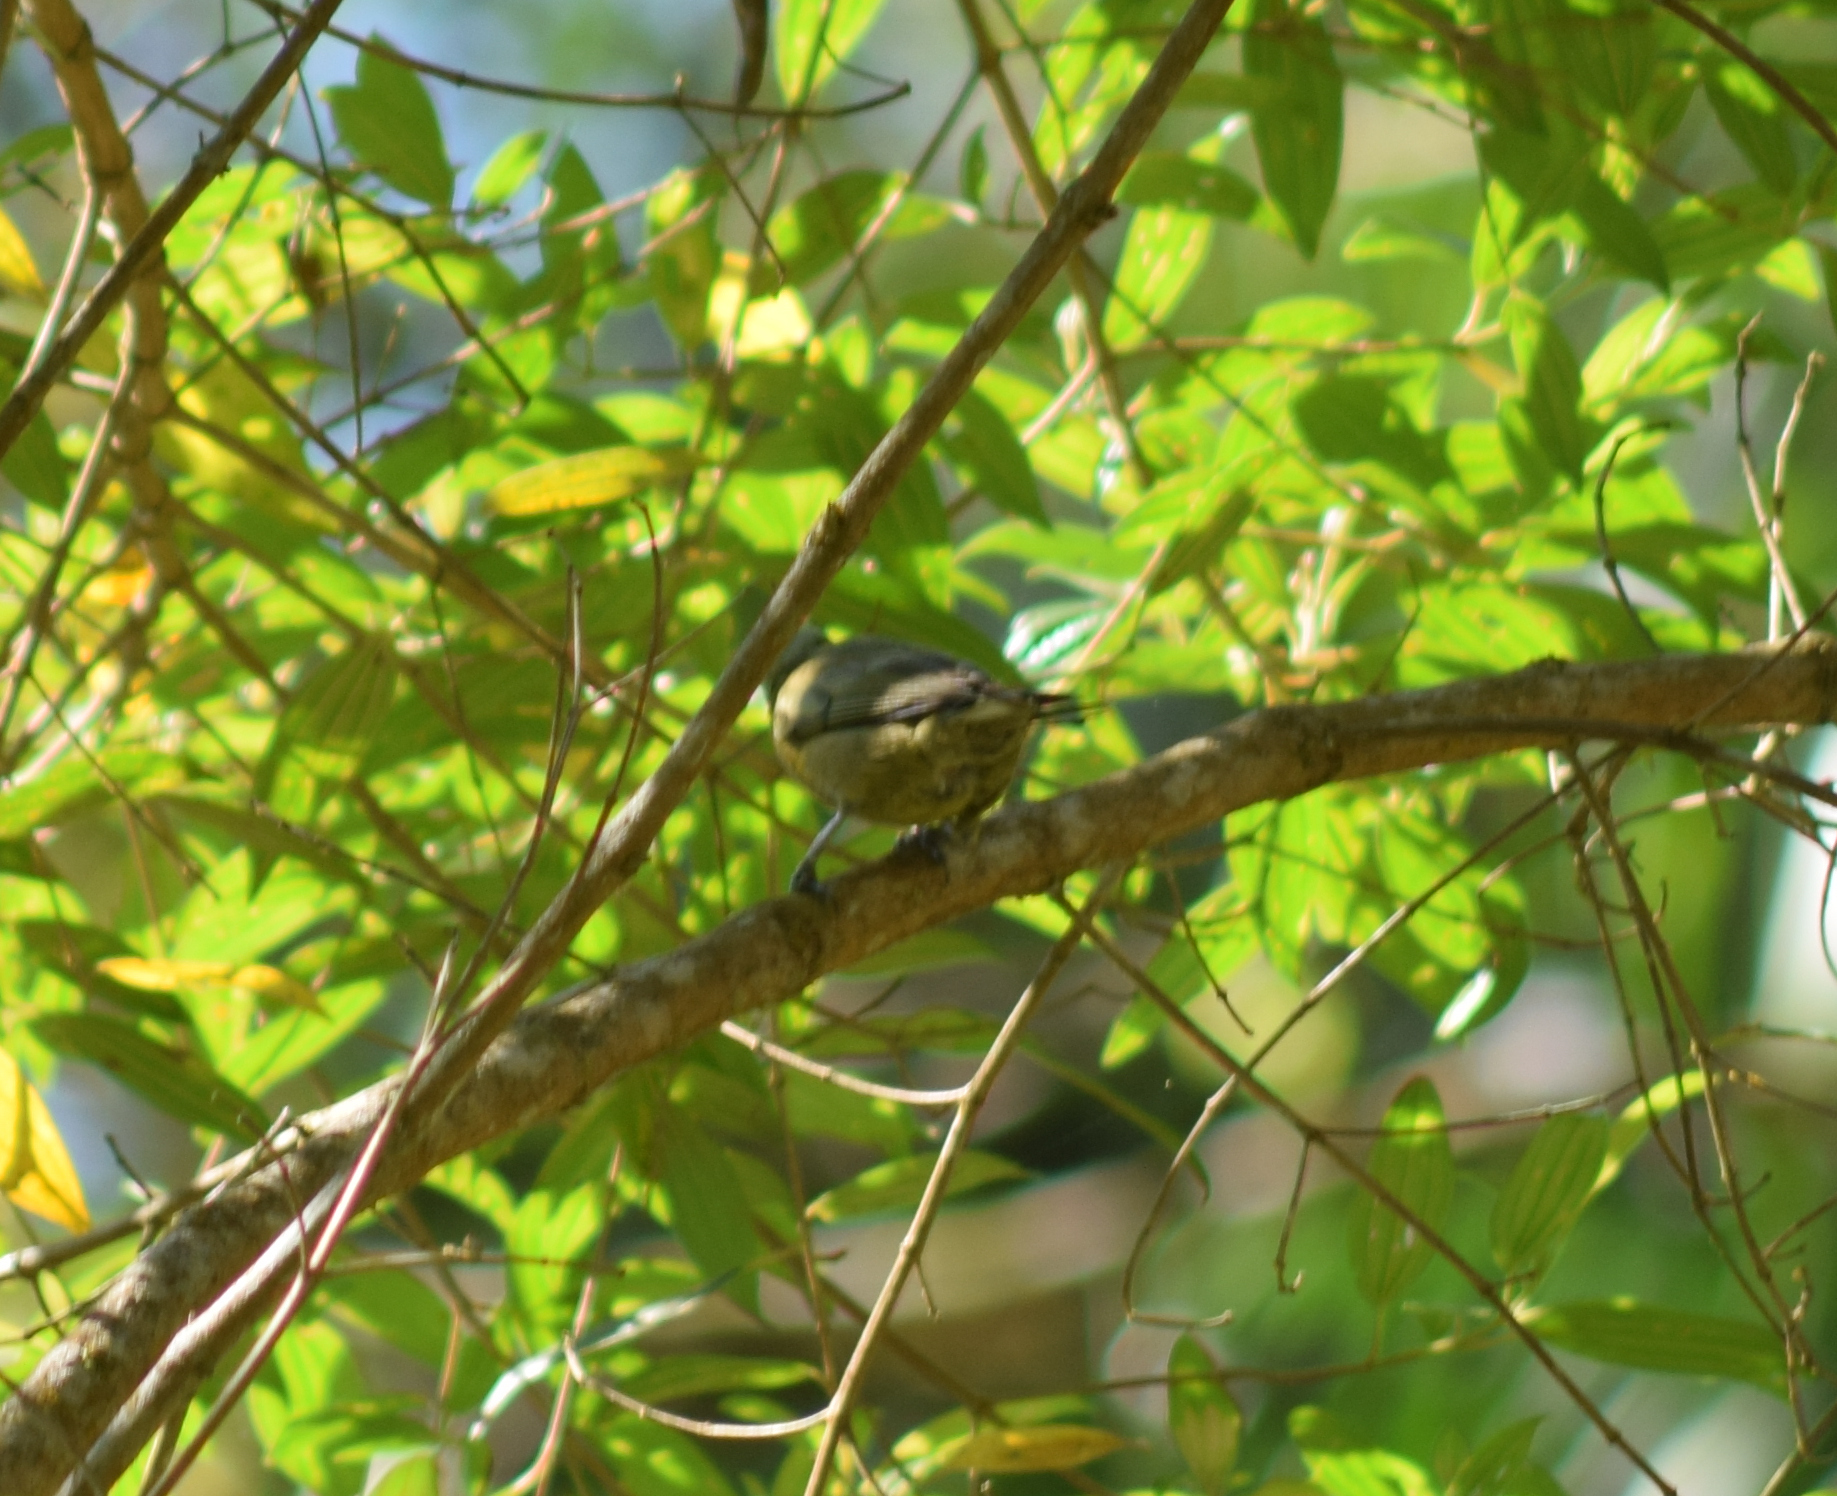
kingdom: Animalia
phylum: Chordata
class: Aves
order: Passeriformes
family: Thraupidae
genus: Thraupis
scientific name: Thraupis palmarum
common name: Palm tanager
